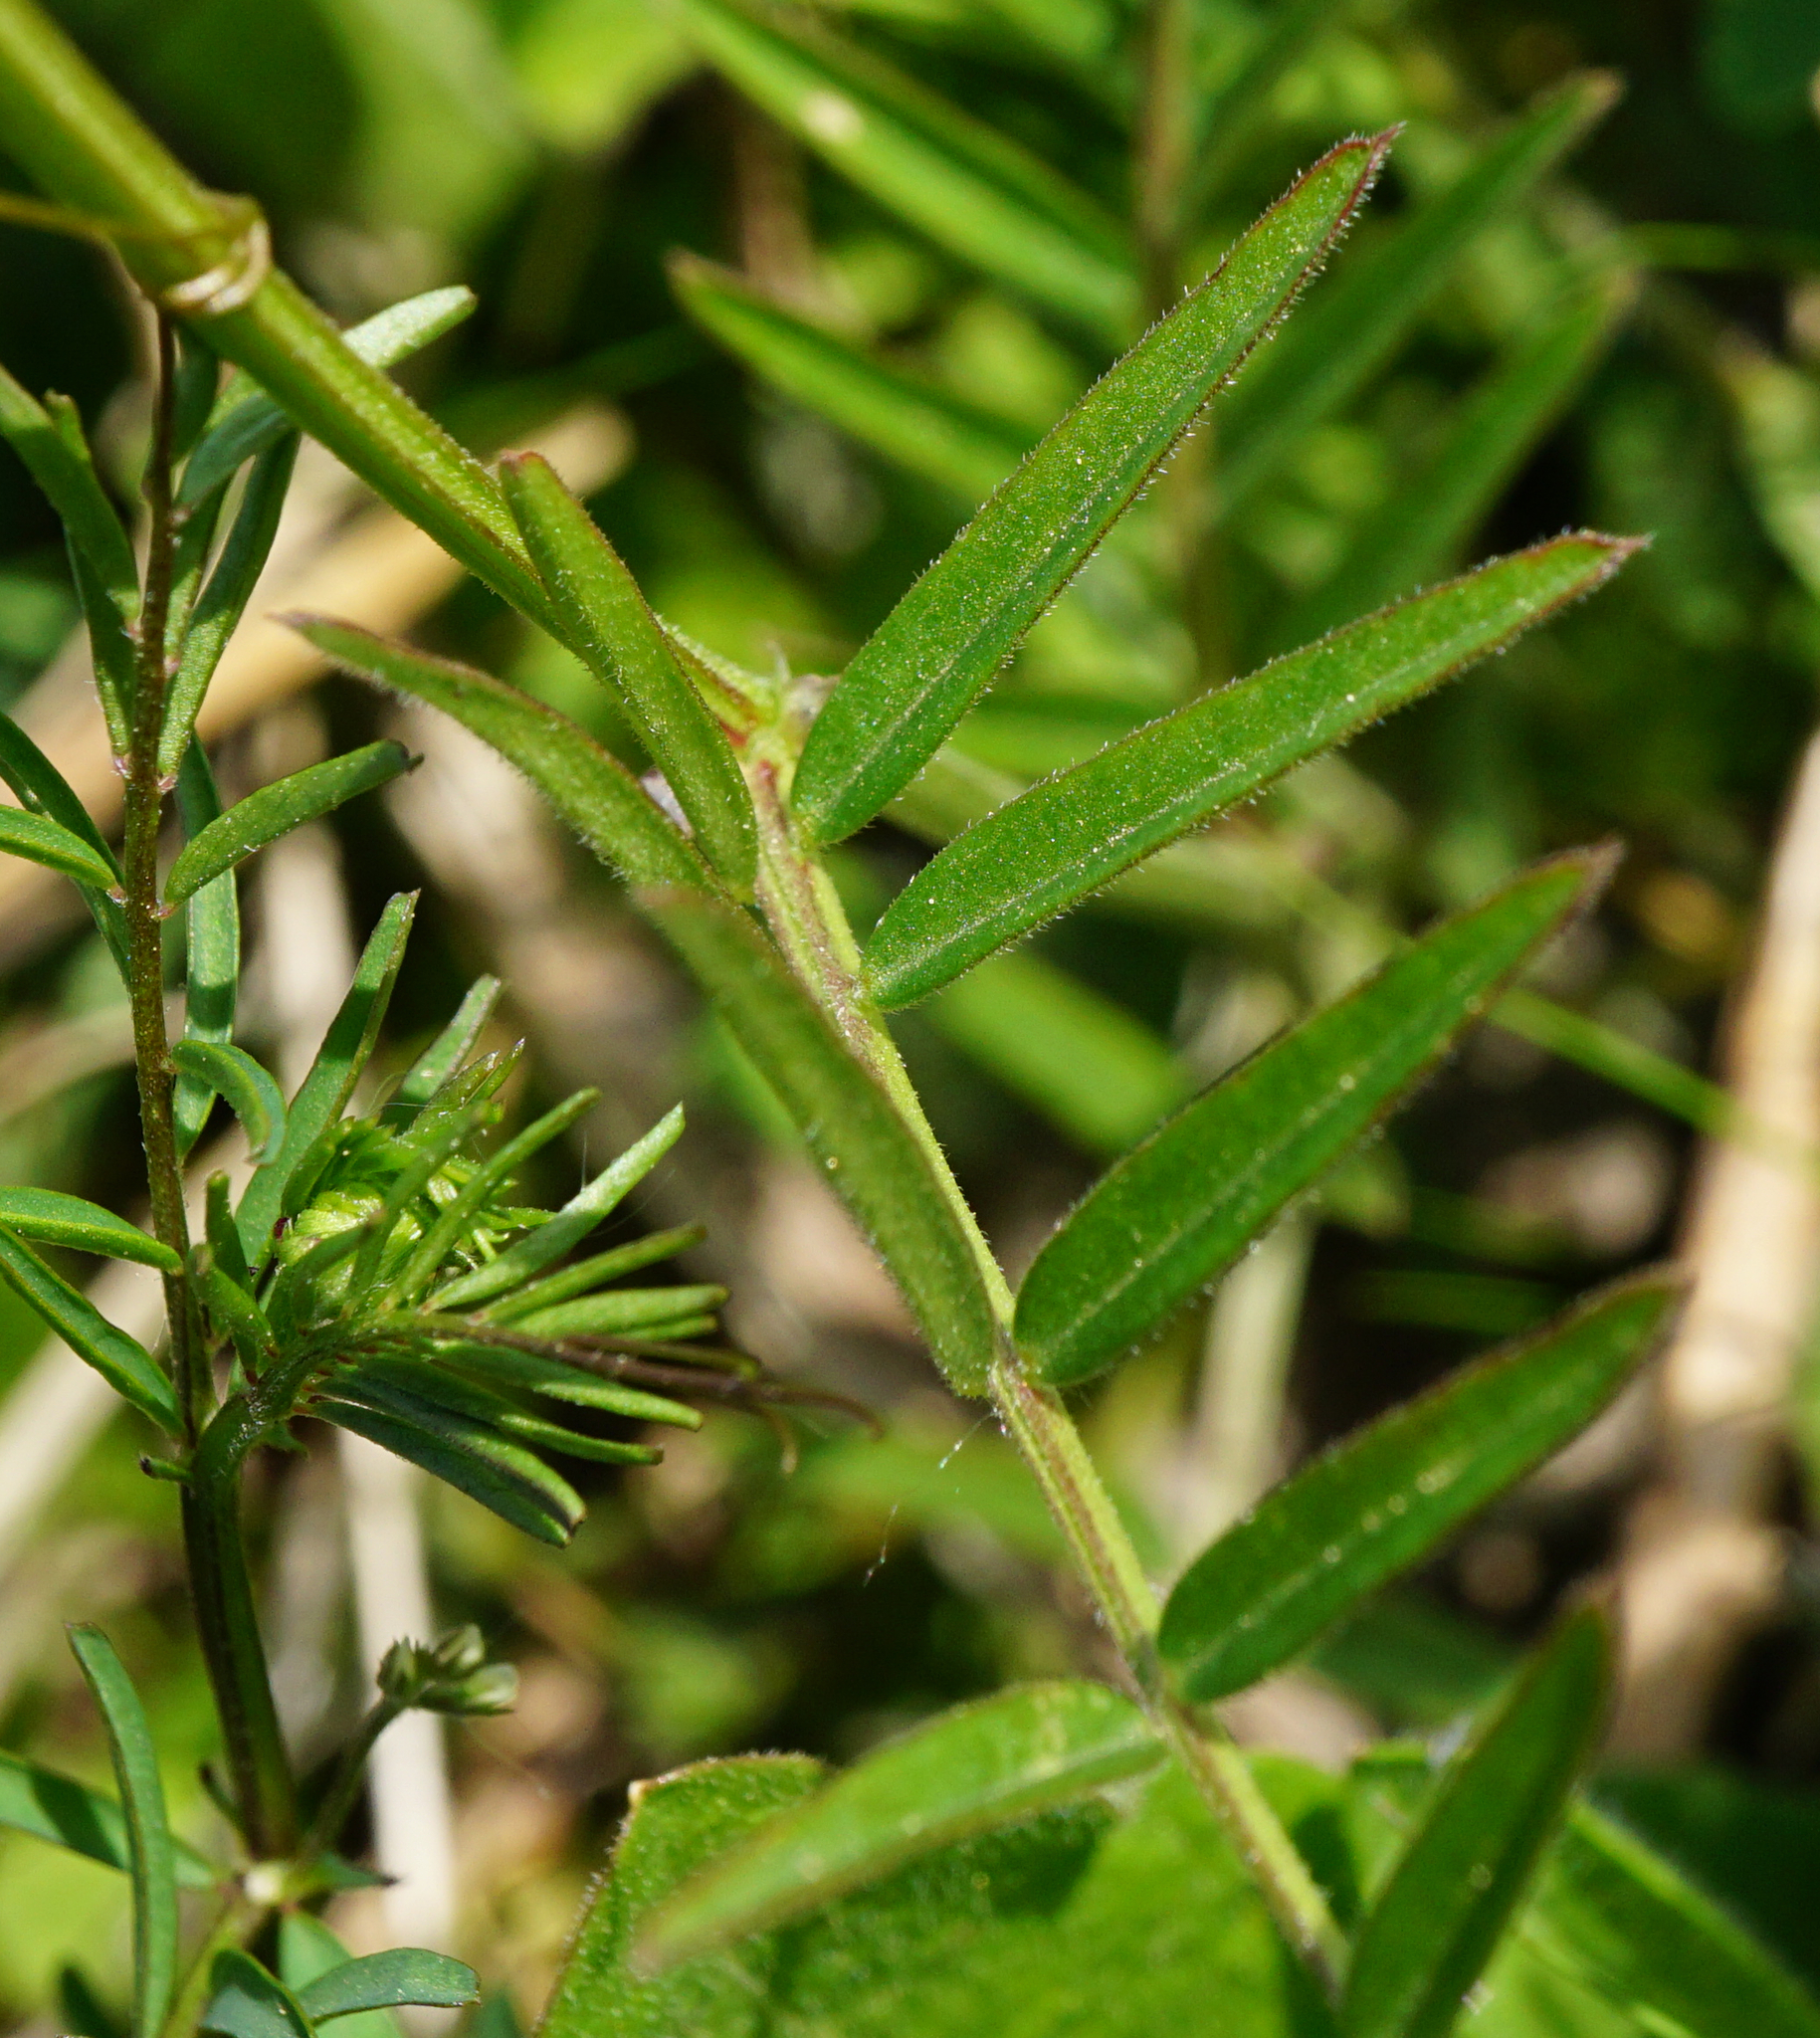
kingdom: Plantae
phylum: Tracheophyta
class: Magnoliopsida
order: Fabales
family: Fabaceae
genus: Vicia
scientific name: Vicia grandiflora
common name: Large yellow vetch
